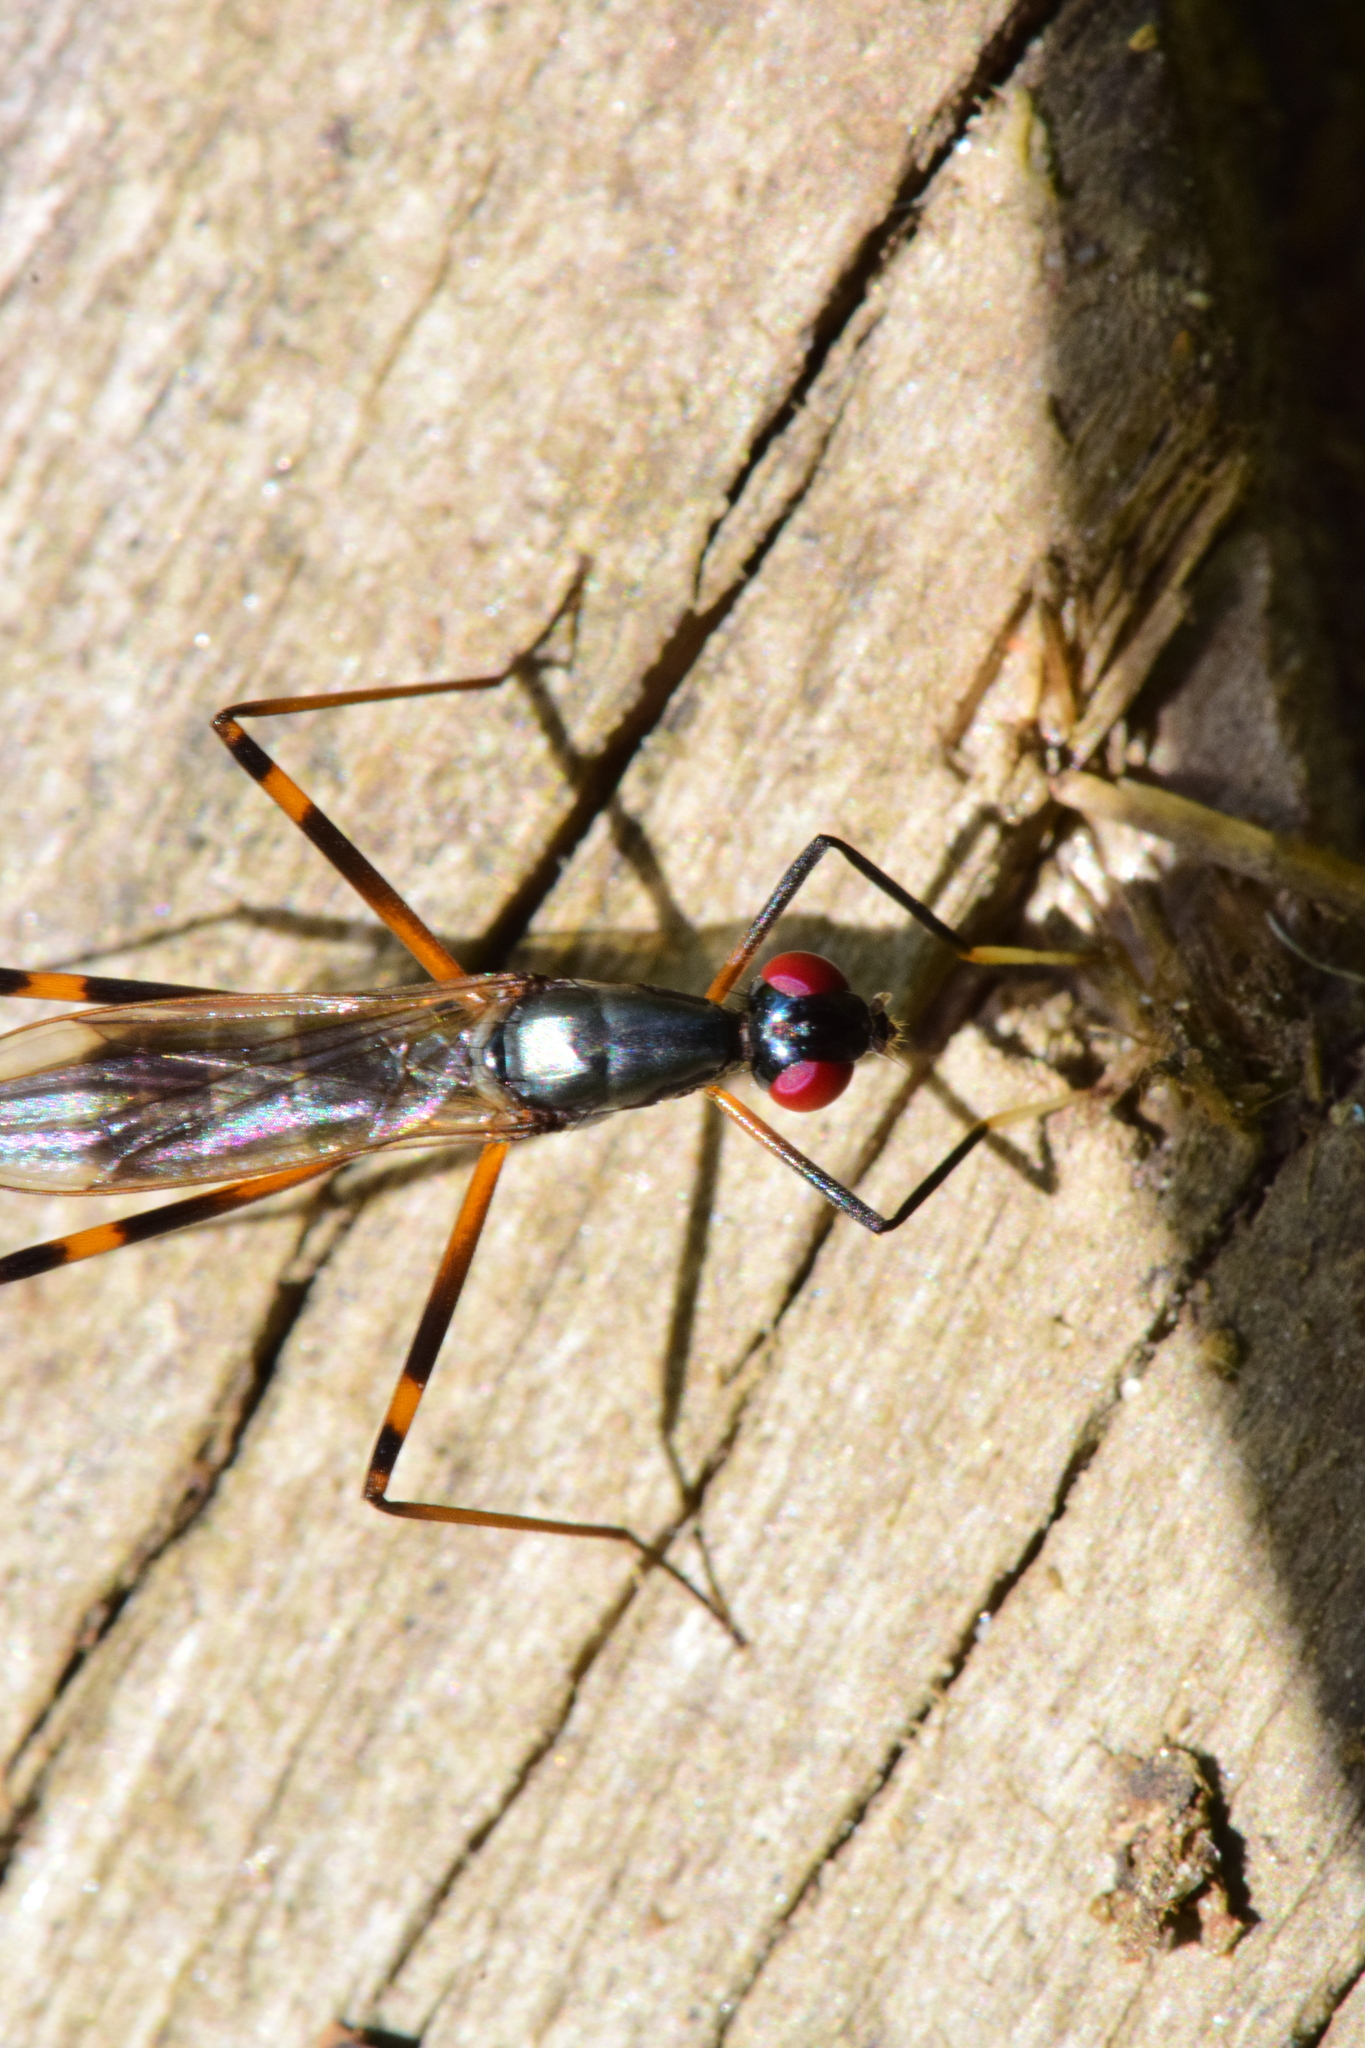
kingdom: Animalia
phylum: Arthropoda
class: Insecta
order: Diptera
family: Micropezidae
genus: Rainieria
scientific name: Rainieria antennaepes
